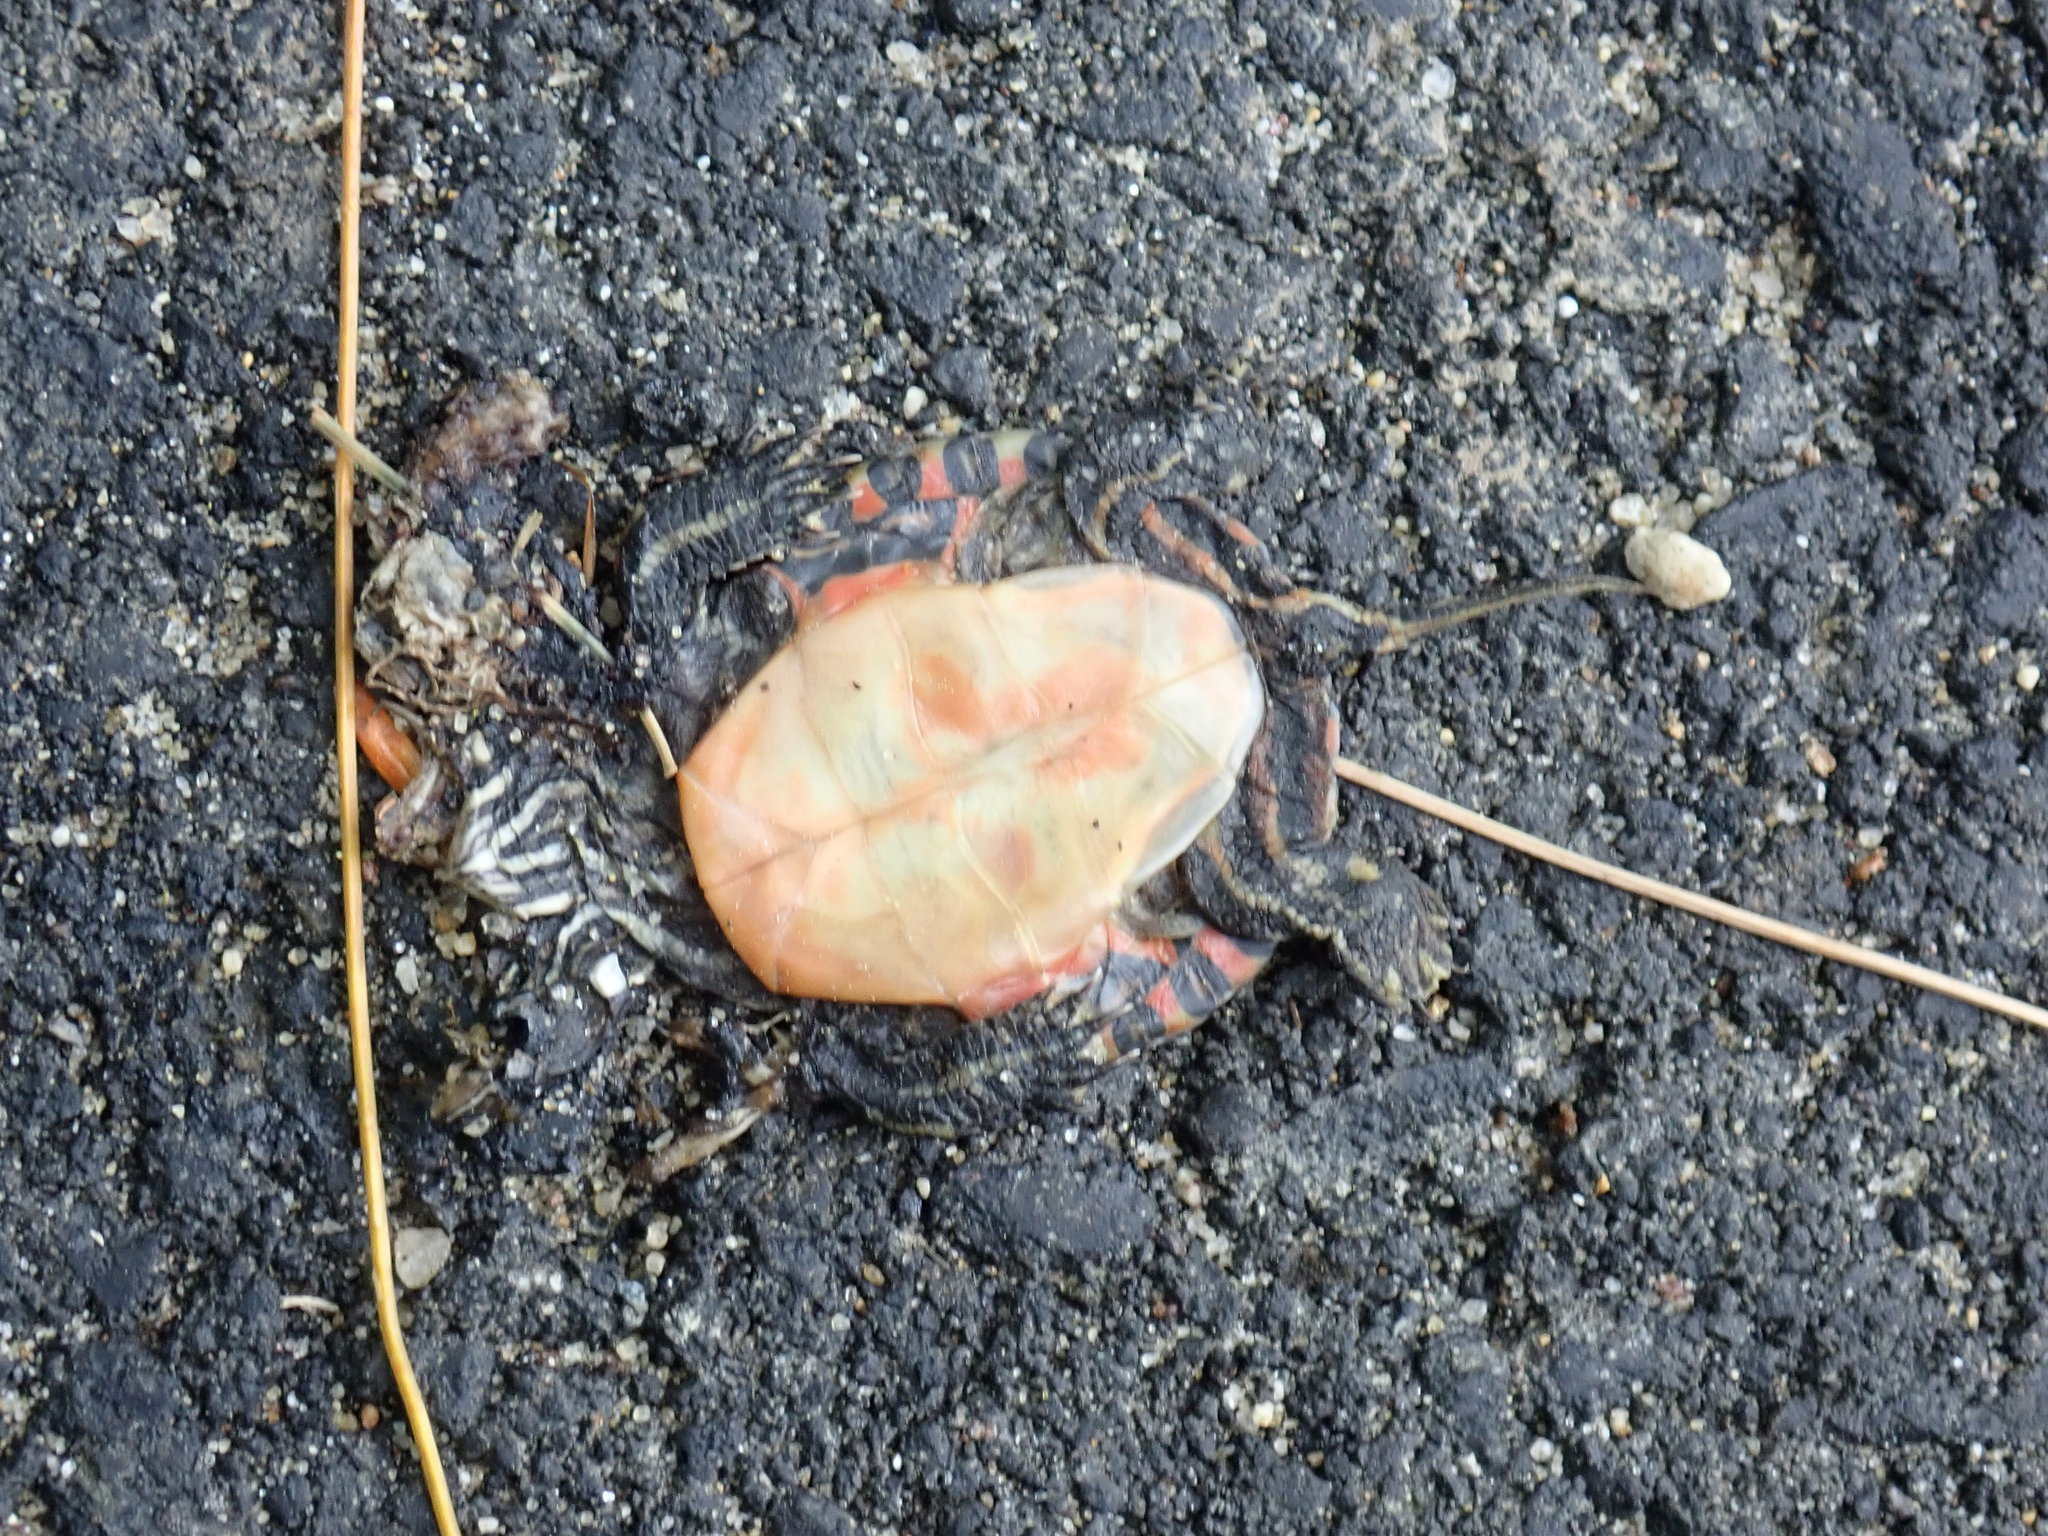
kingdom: Animalia
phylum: Chordata
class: Testudines
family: Emydidae
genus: Chrysemys
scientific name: Chrysemys picta
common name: Painted turtle
